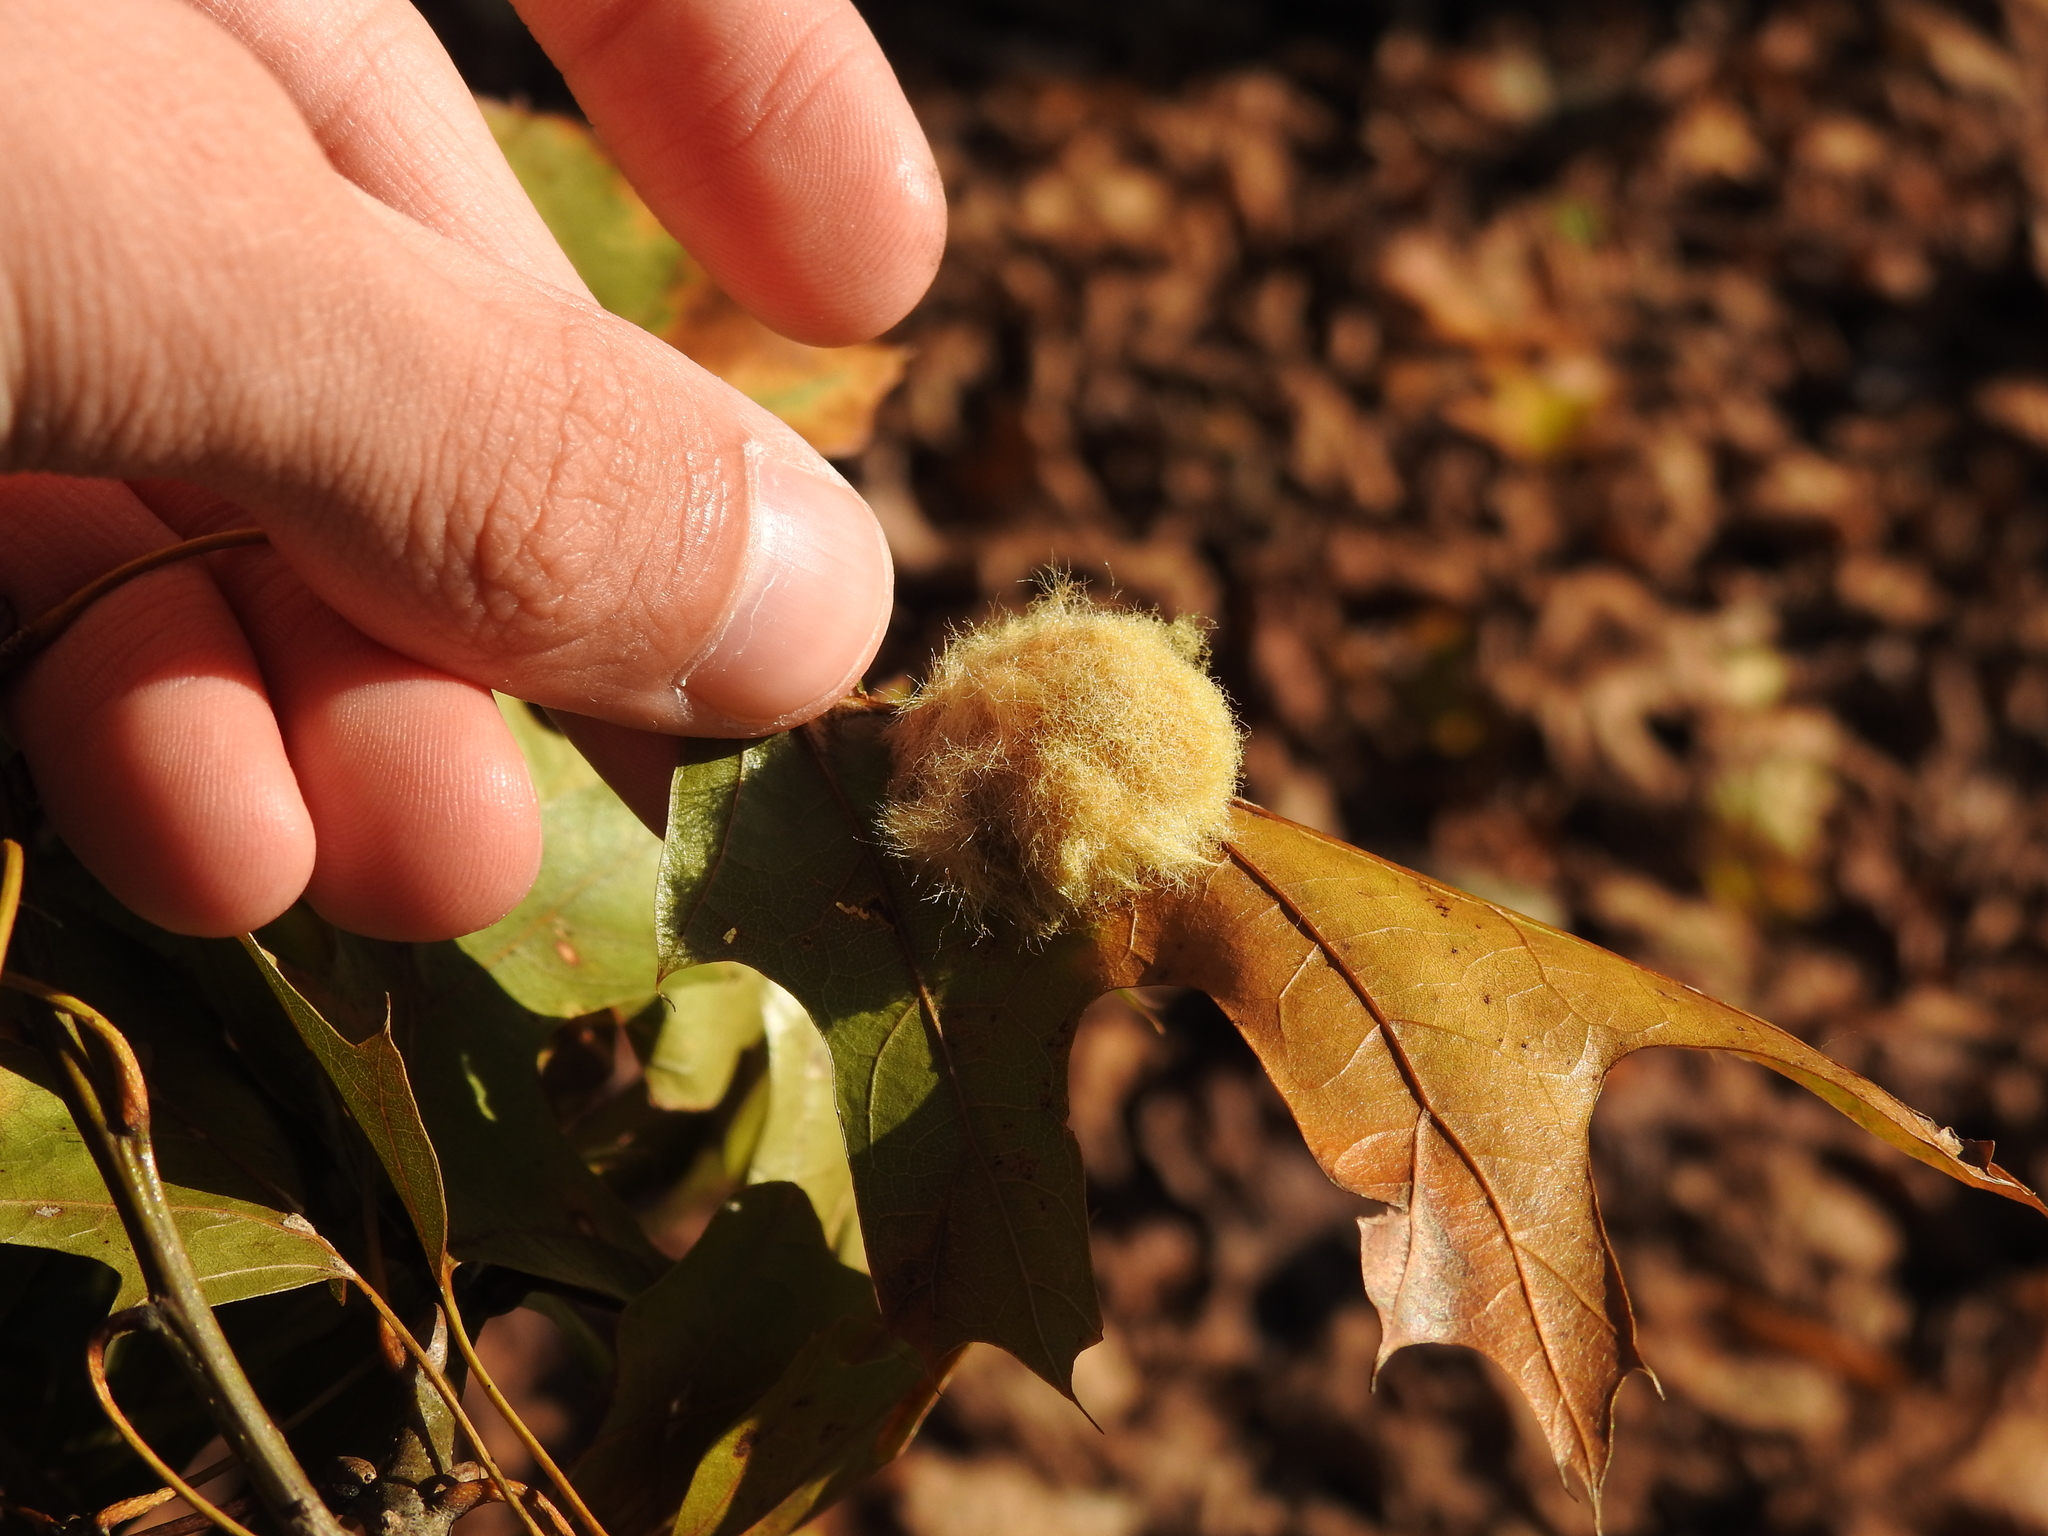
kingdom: Animalia
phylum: Arthropoda
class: Insecta
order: Hymenoptera
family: Cynipidae
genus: Callirhytis
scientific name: Callirhytis
